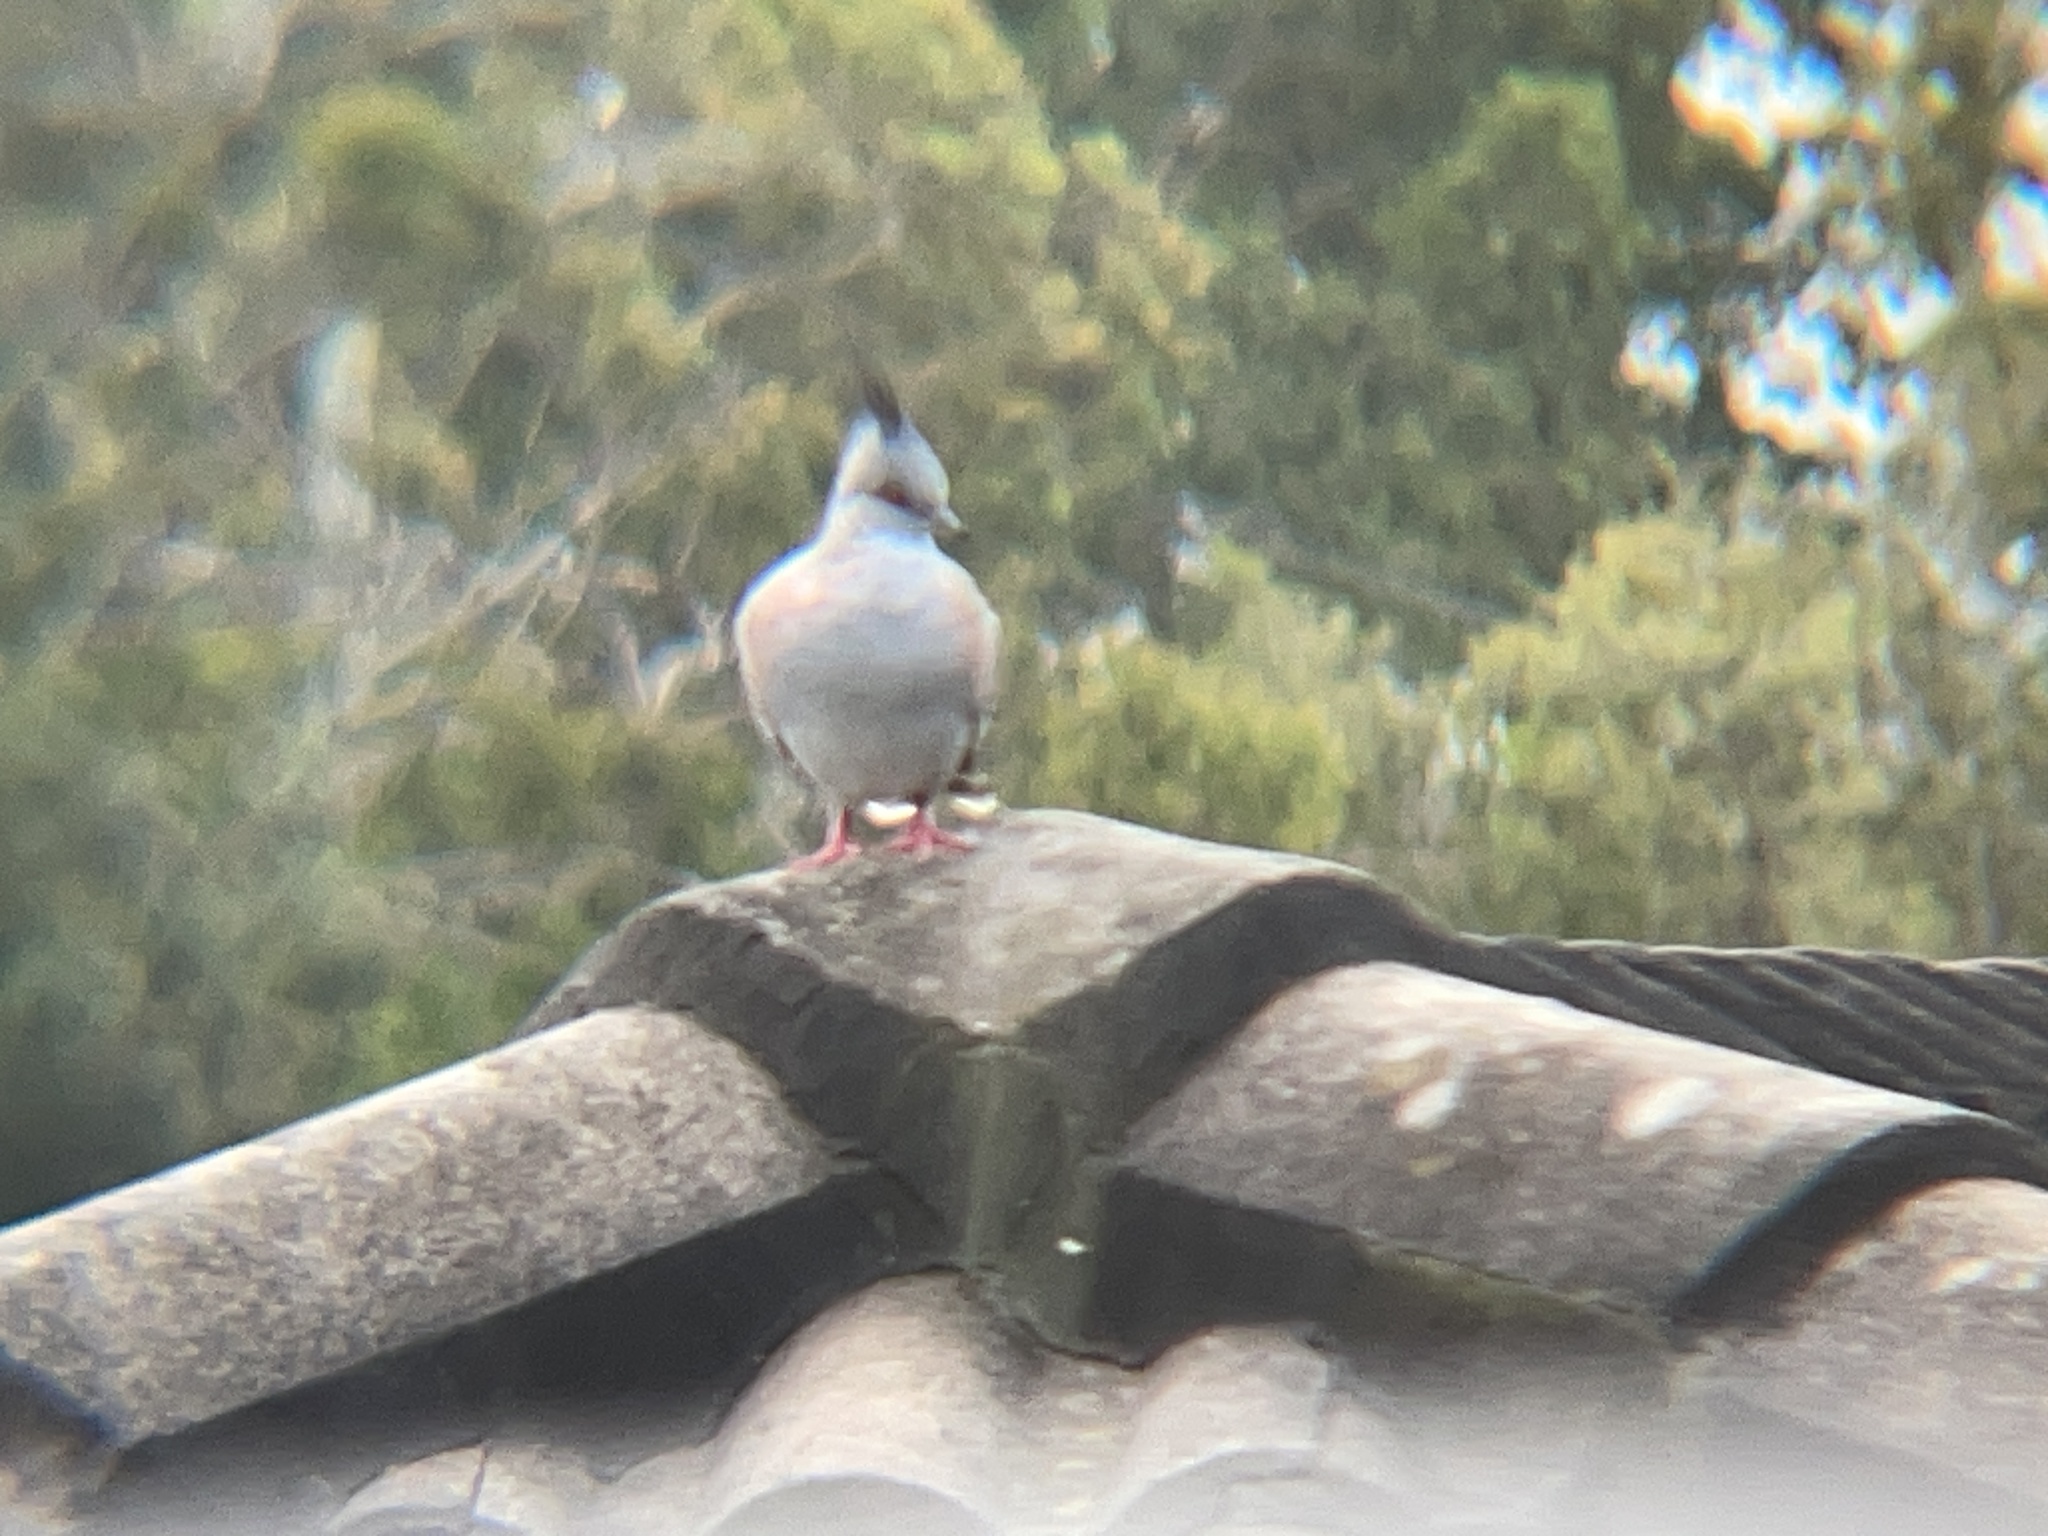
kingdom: Animalia
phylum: Chordata
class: Aves
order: Columbiformes
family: Columbidae
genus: Ocyphaps
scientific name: Ocyphaps lophotes
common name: Crested pigeon
